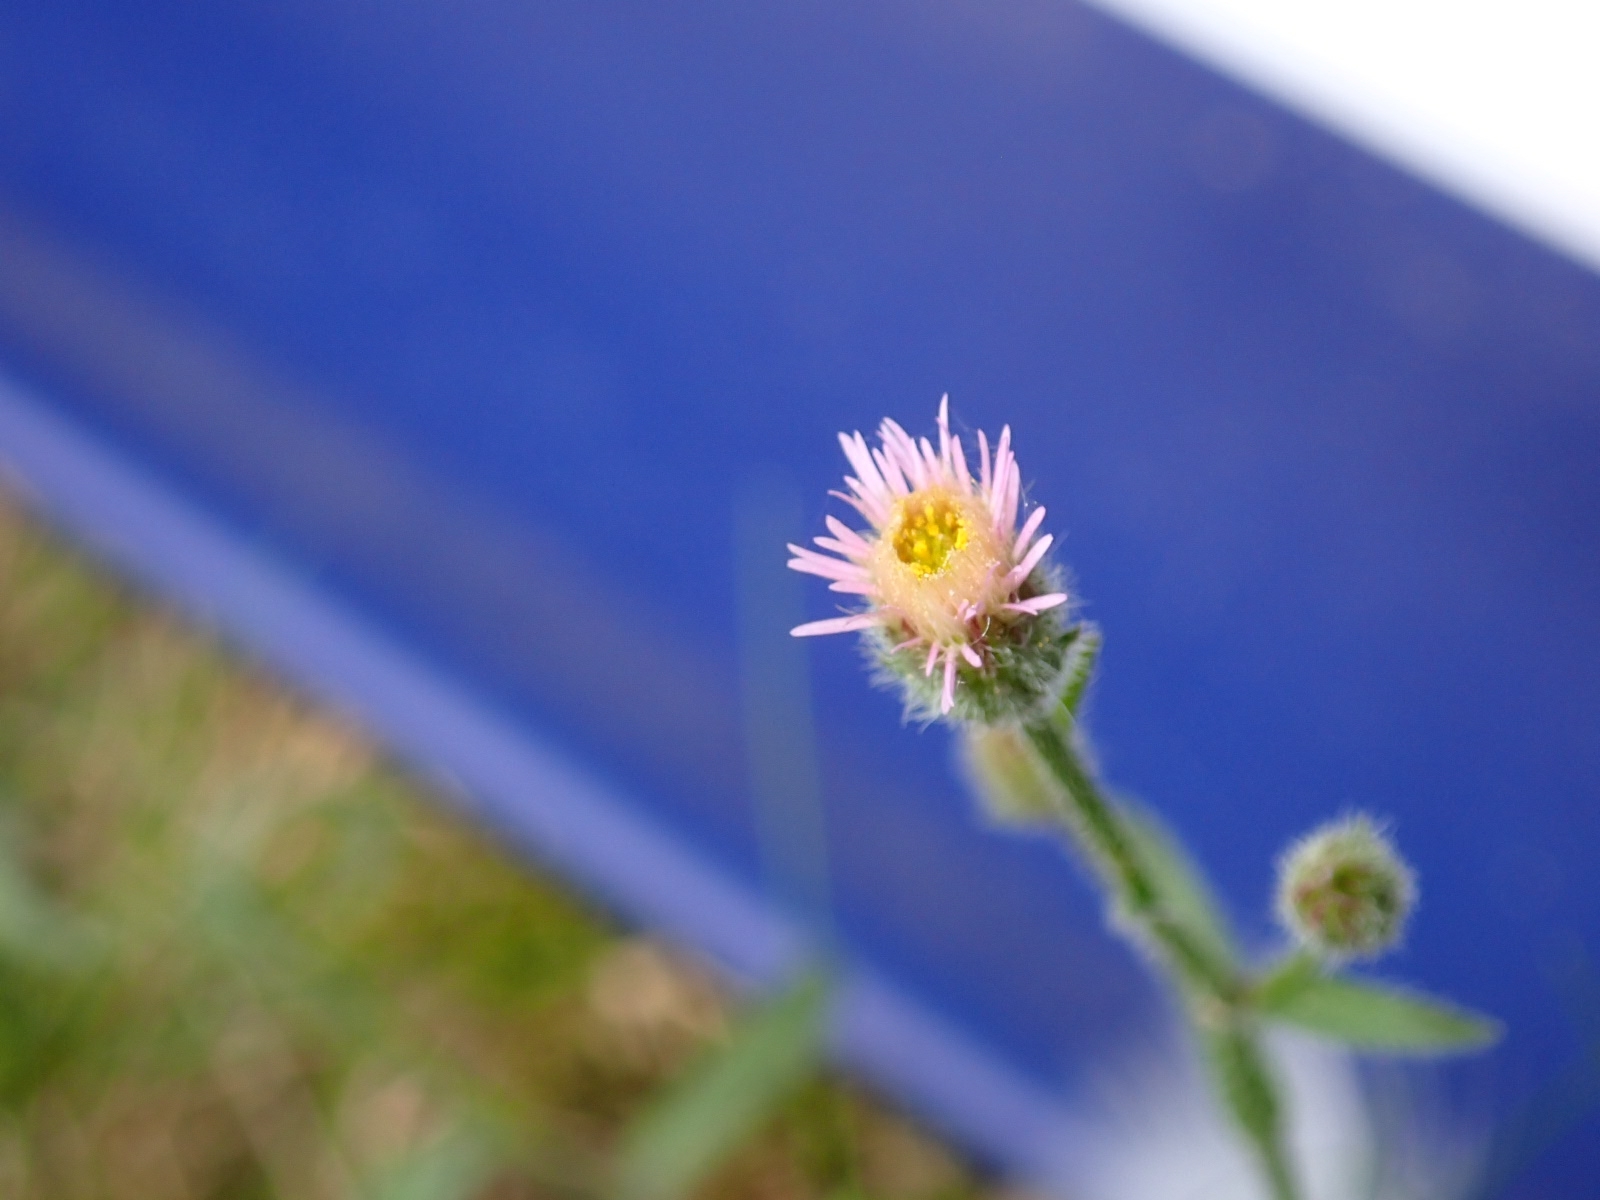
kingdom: Plantae
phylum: Tracheophyta
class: Magnoliopsida
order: Asterales
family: Asteraceae
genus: Erigeron
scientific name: Erigeron acris
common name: Blue fleabane
